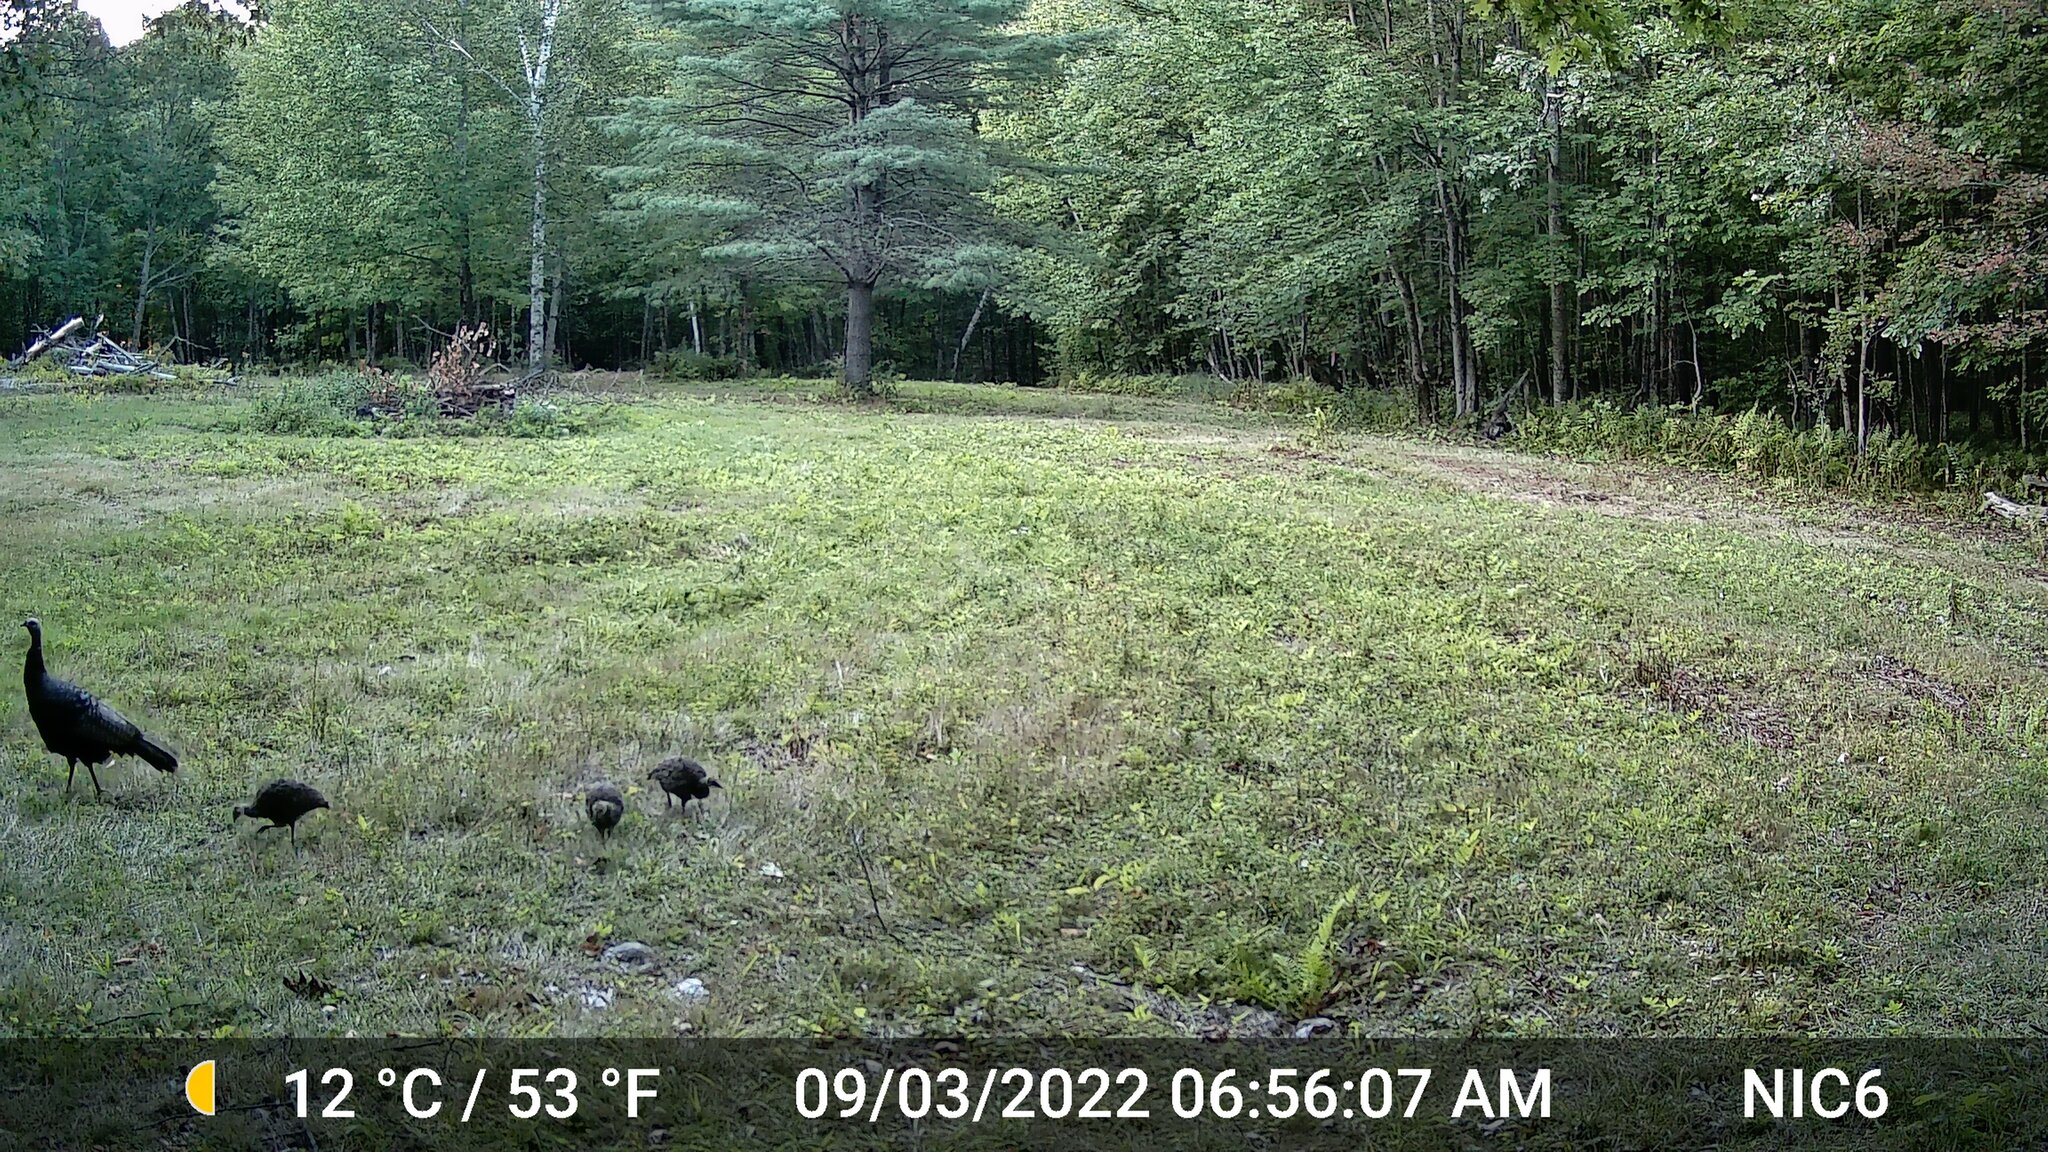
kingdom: Animalia
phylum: Chordata
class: Aves
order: Galliformes
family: Phasianidae
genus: Meleagris
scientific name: Meleagris gallopavo
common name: Wild turkey
